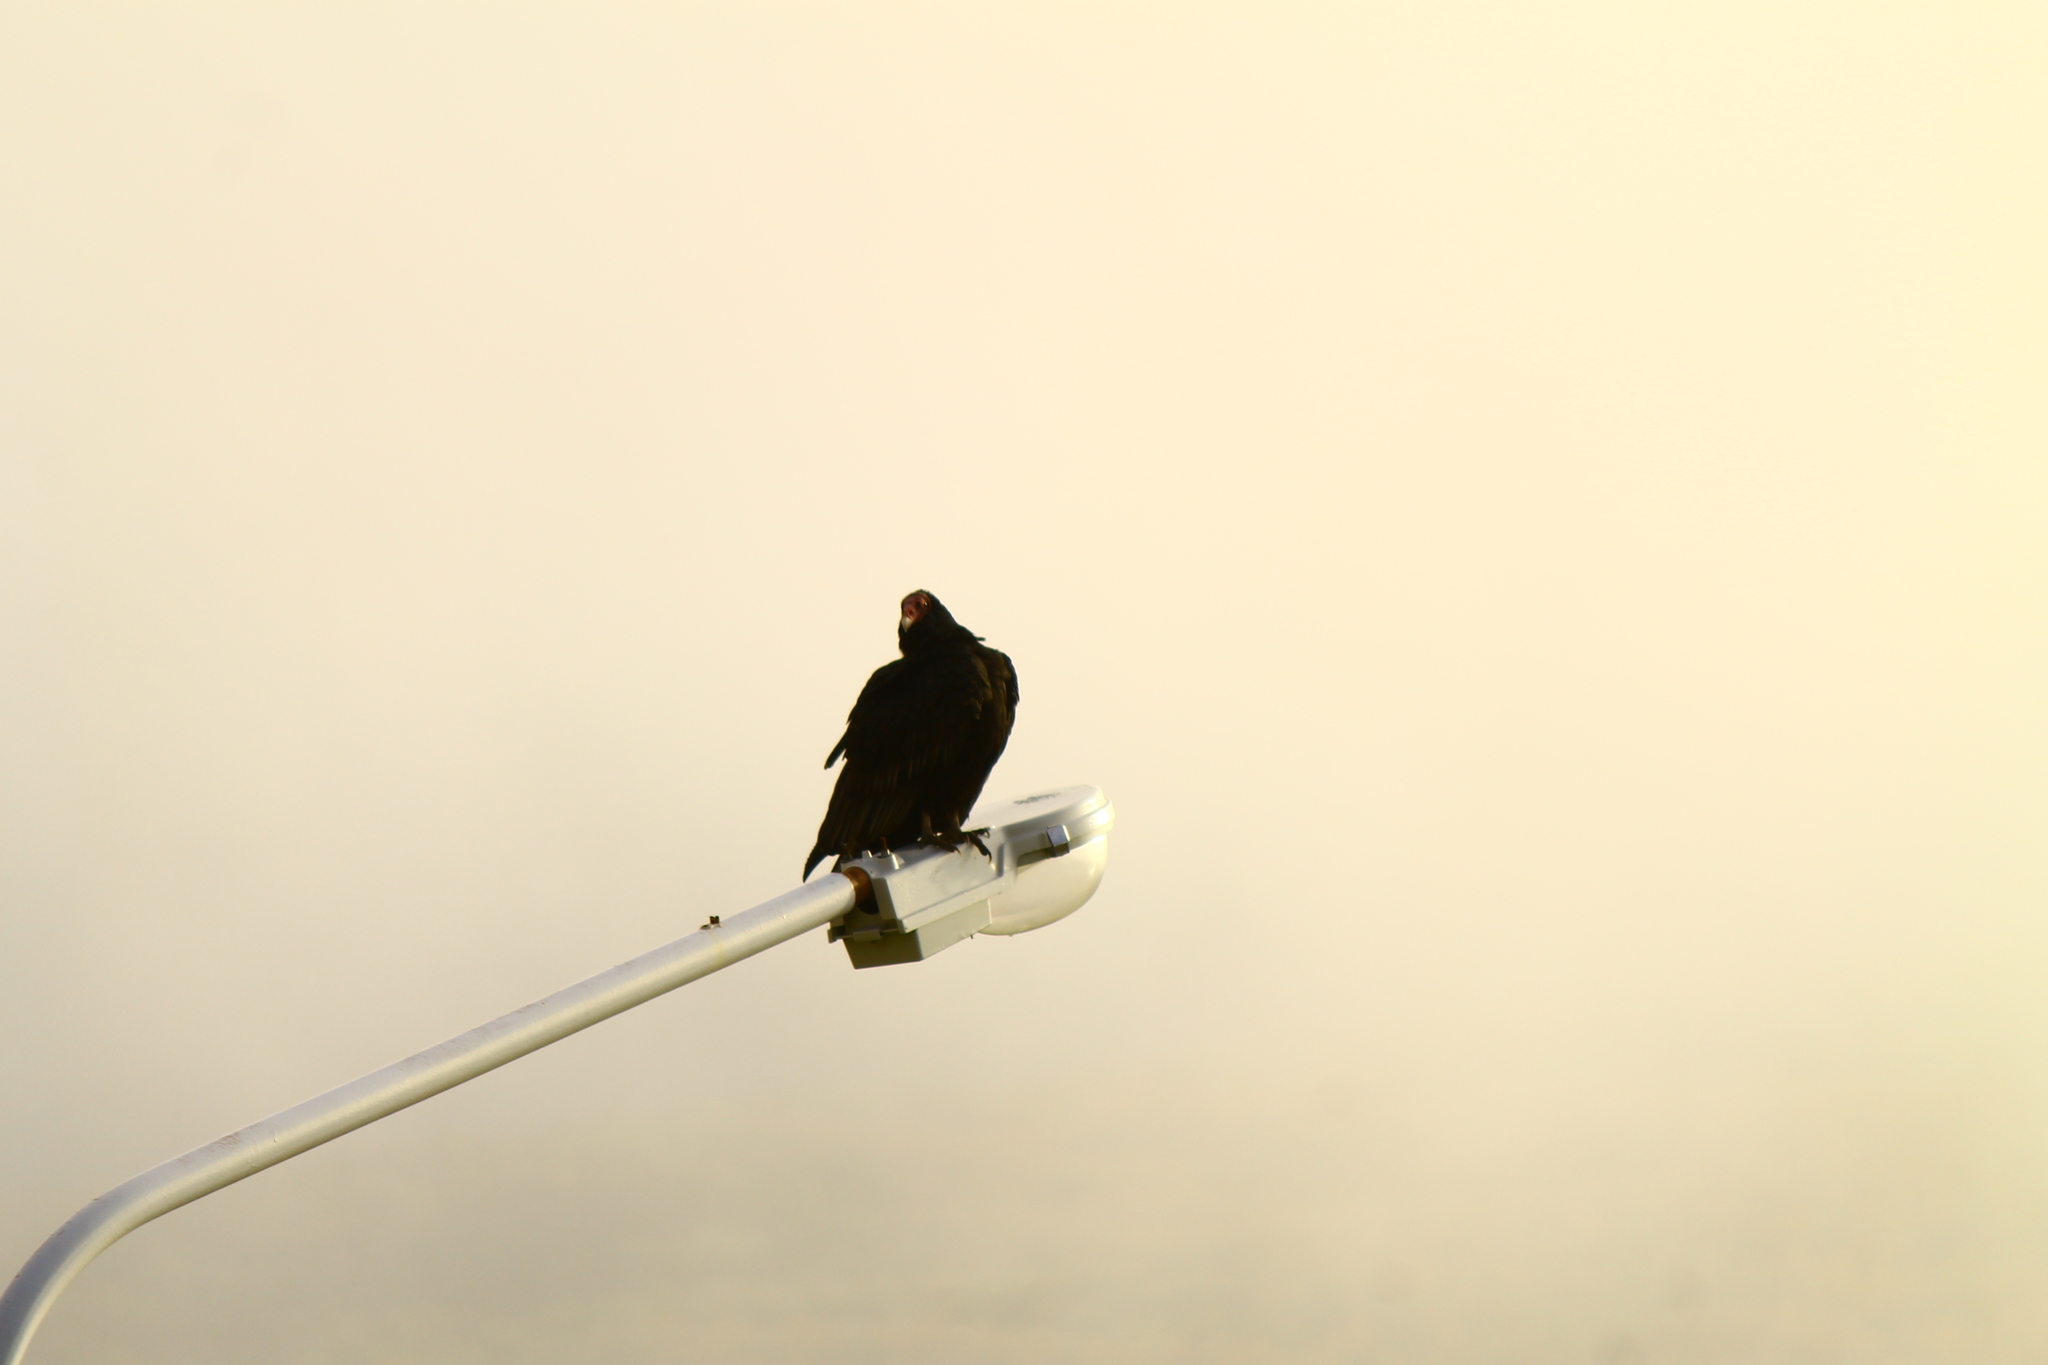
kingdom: Animalia
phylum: Chordata
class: Aves
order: Accipitriformes
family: Cathartidae
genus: Cathartes
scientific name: Cathartes aura
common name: Turkey vulture
